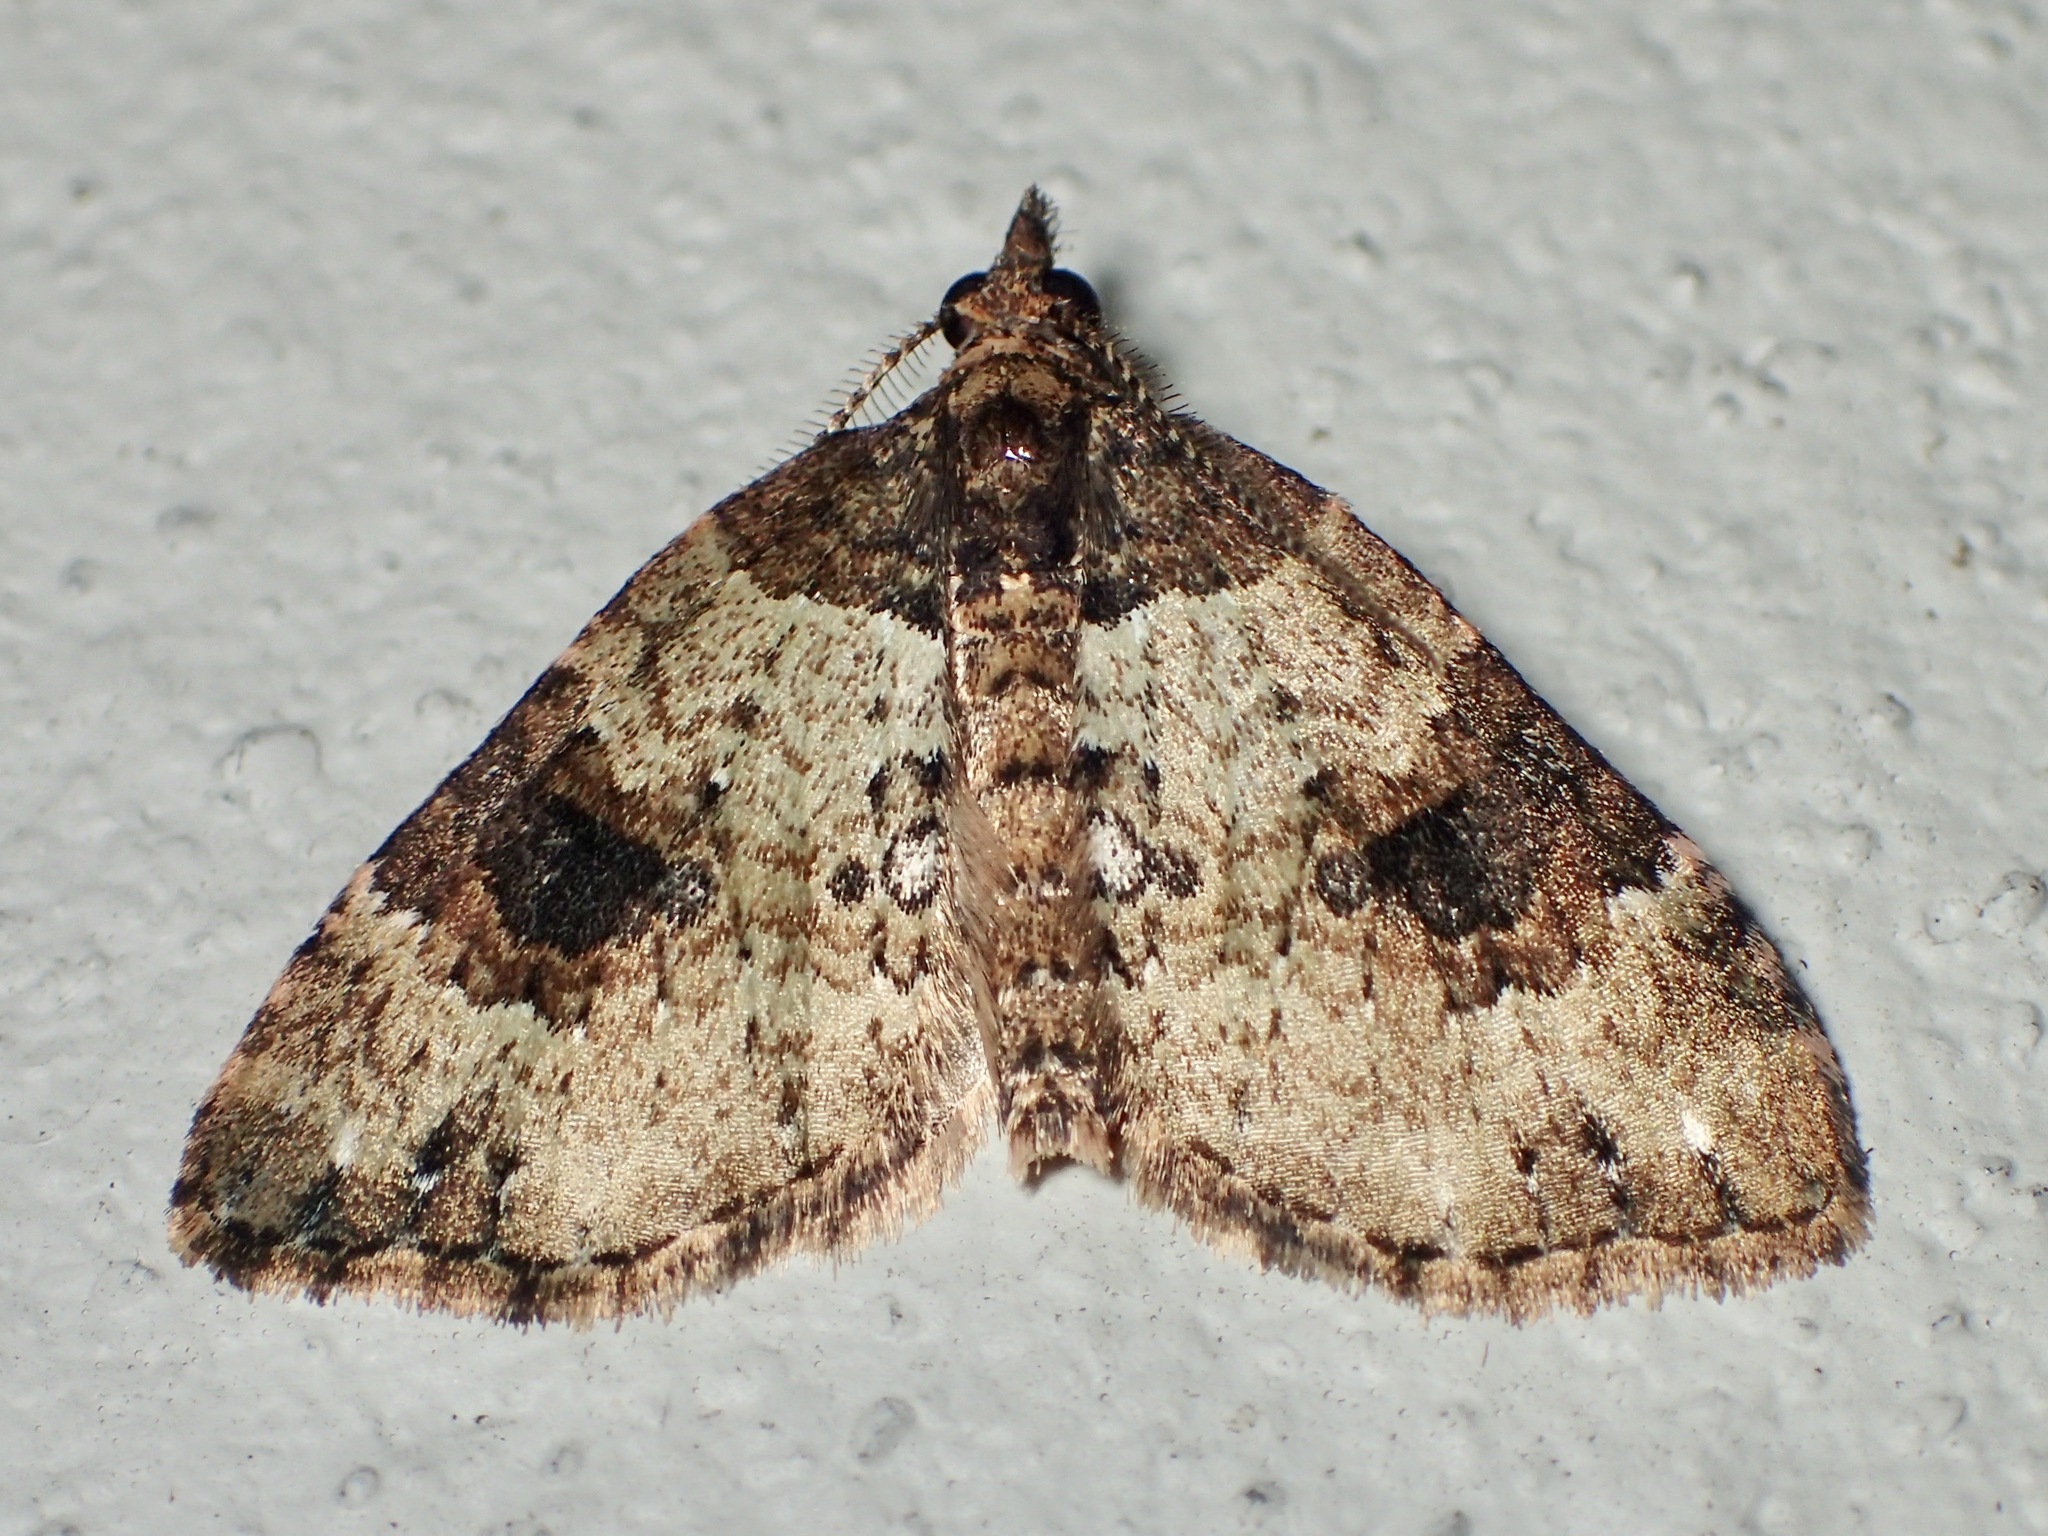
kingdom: Animalia
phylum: Arthropoda
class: Insecta
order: Lepidoptera
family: Geometridae
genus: Chrysolarentia
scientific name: Chrysolarentia pantoea
